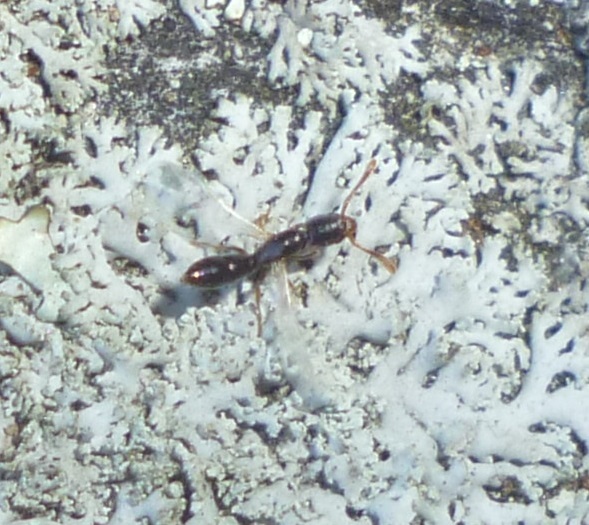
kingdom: Animalia
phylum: Arthropoda
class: Insecta
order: Hymenoptera
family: Formicidae
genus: Ponera
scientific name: Ponera pennsylvanica
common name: Pennsylvania ponera
